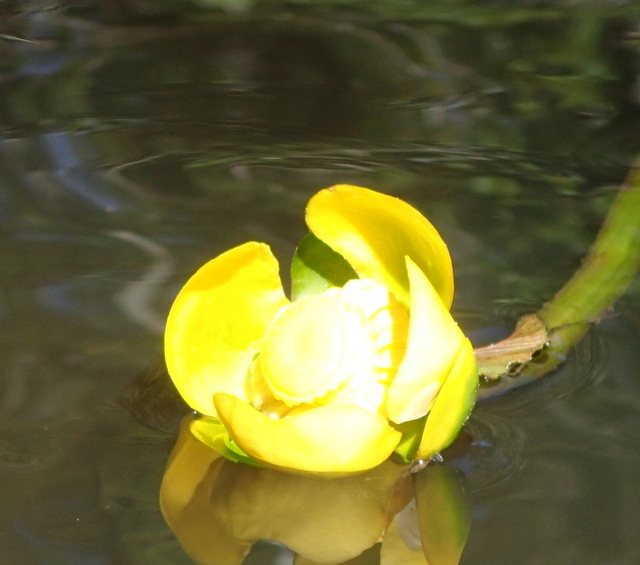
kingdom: Plantae
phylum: Tracheophyta
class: Magnoliopsida
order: Nymphaeales
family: Nymphaeaceae
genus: Nuphar
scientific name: Nuphar advena
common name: Spatter-dock
